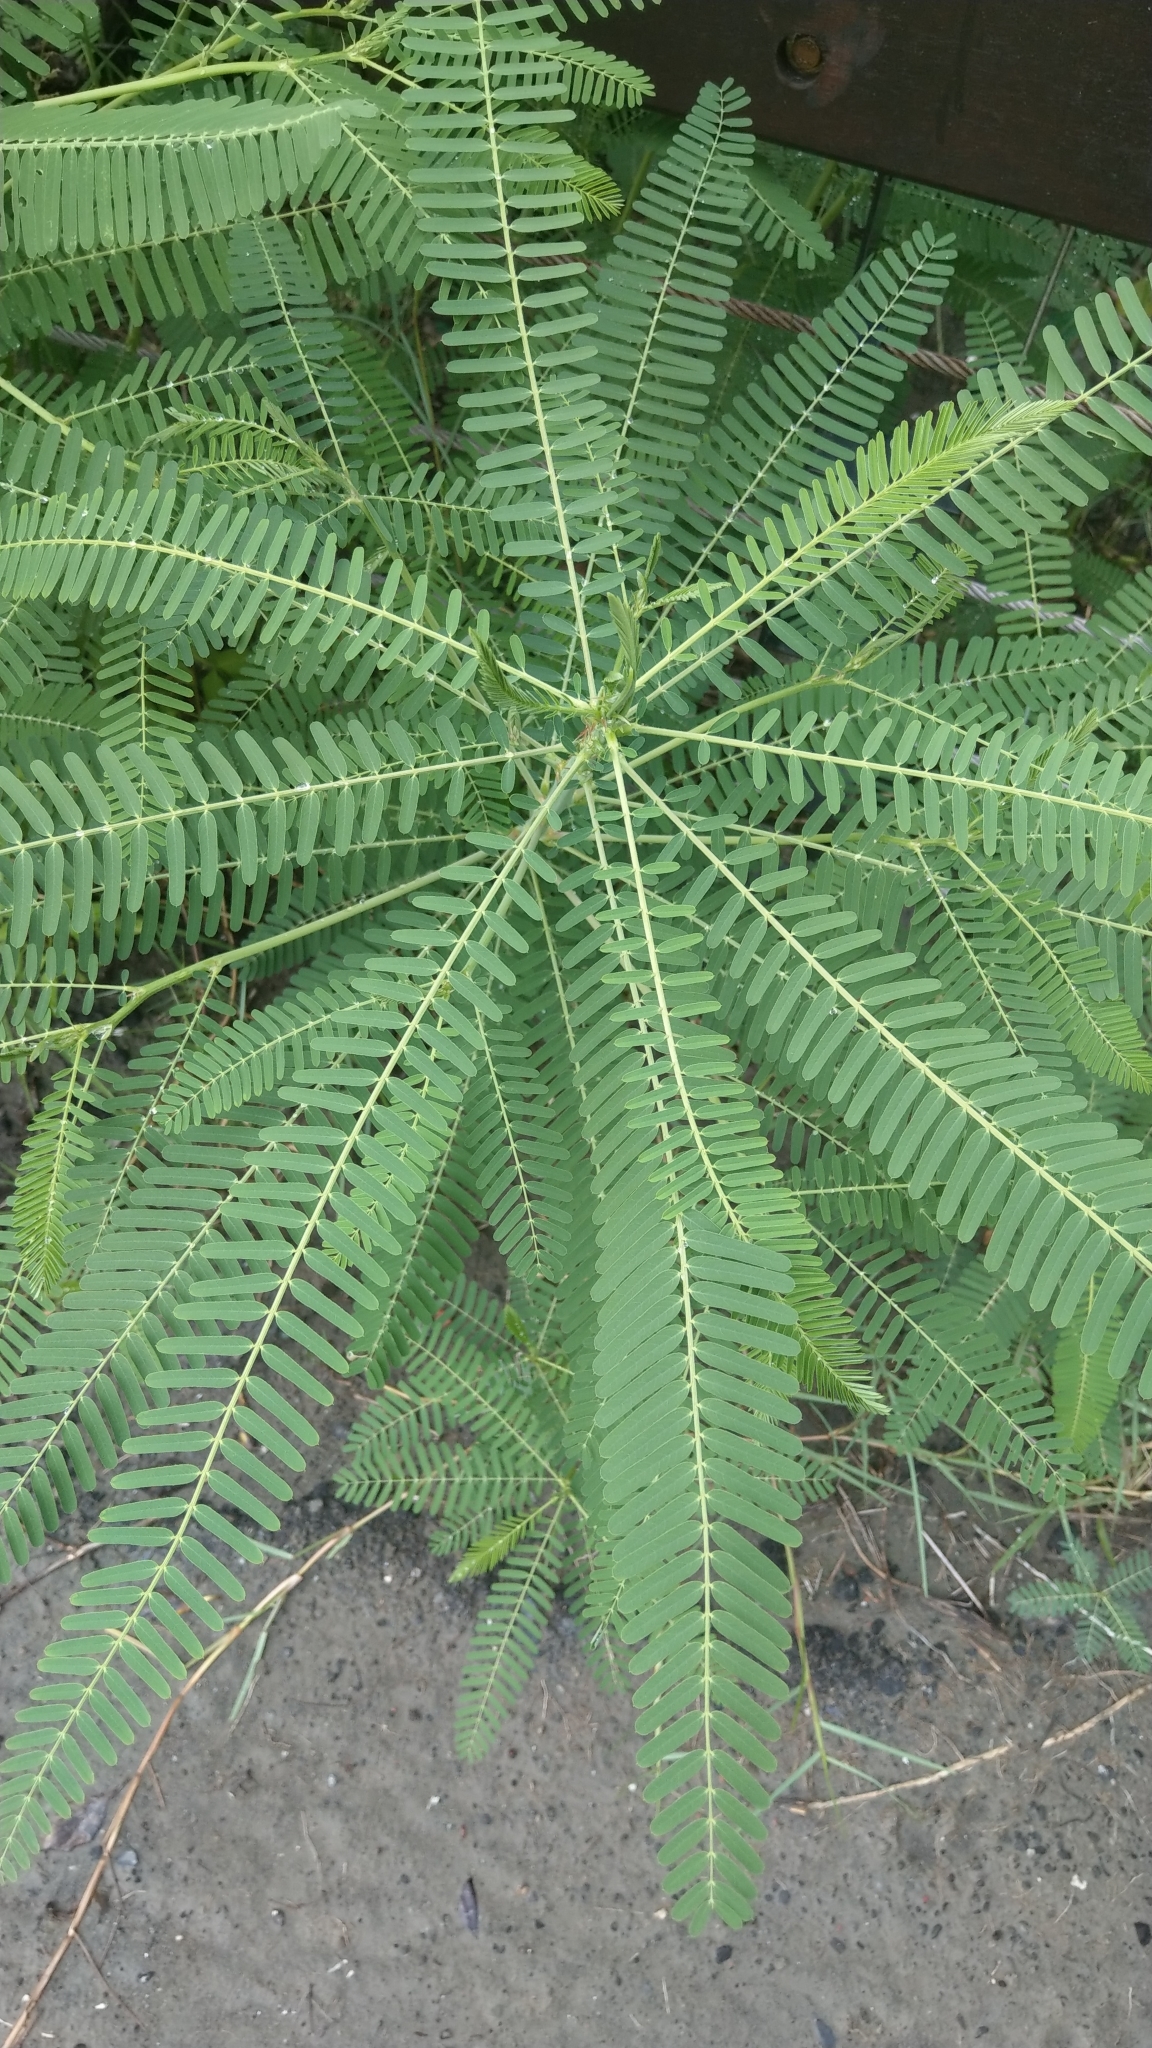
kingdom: Plantae
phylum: Tracheophyta
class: Magnoliopsida
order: Fabales
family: Fabaceae
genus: Sesbania
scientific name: Sesbania cannabina
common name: Canicha
